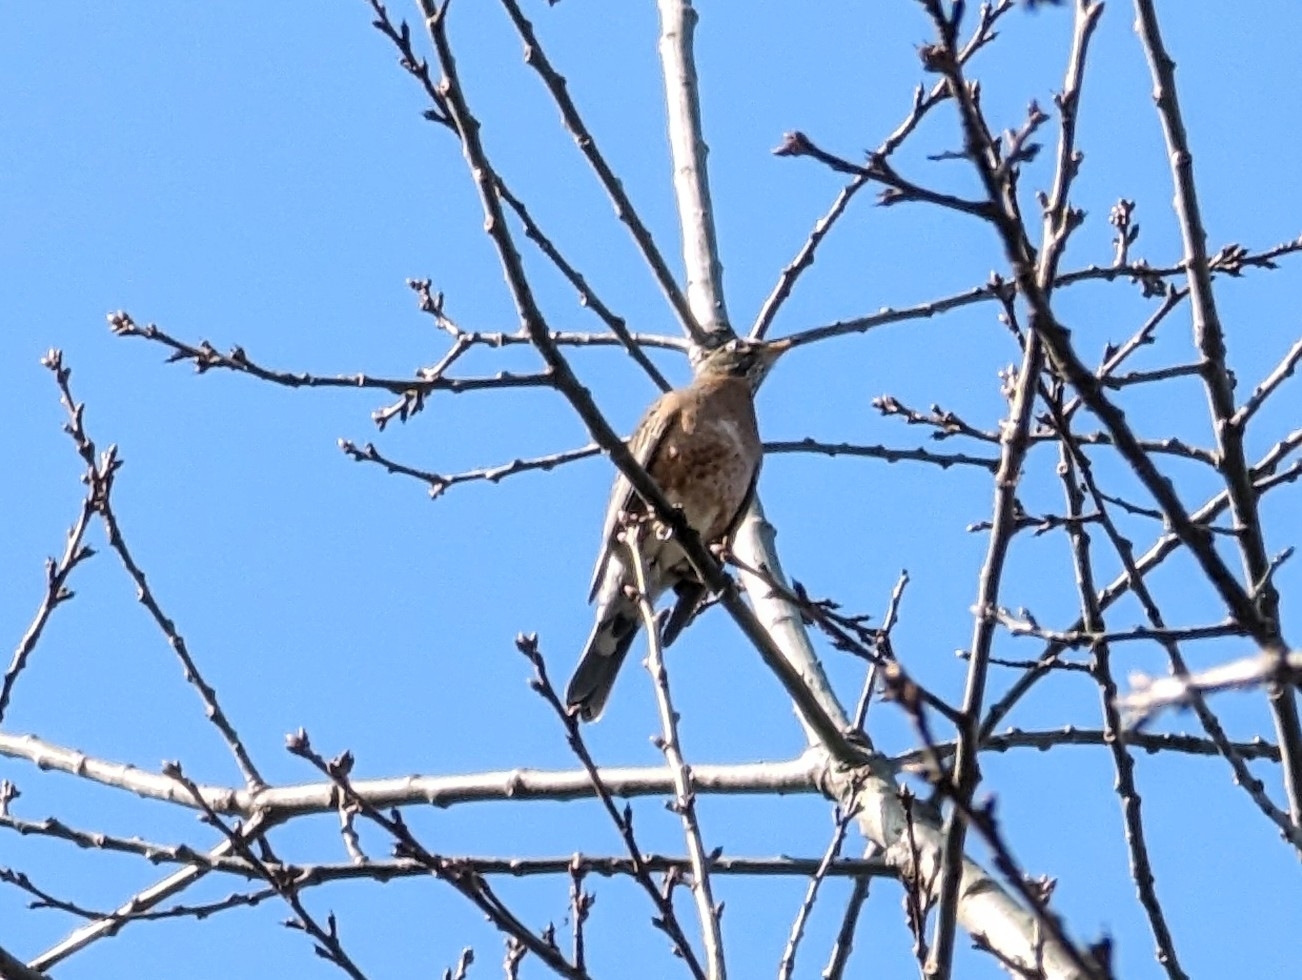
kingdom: Animalia
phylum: Chordata
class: Aves
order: Passeriformes
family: Turdidae
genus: Turdus
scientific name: Turdus migratorius
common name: American robin
